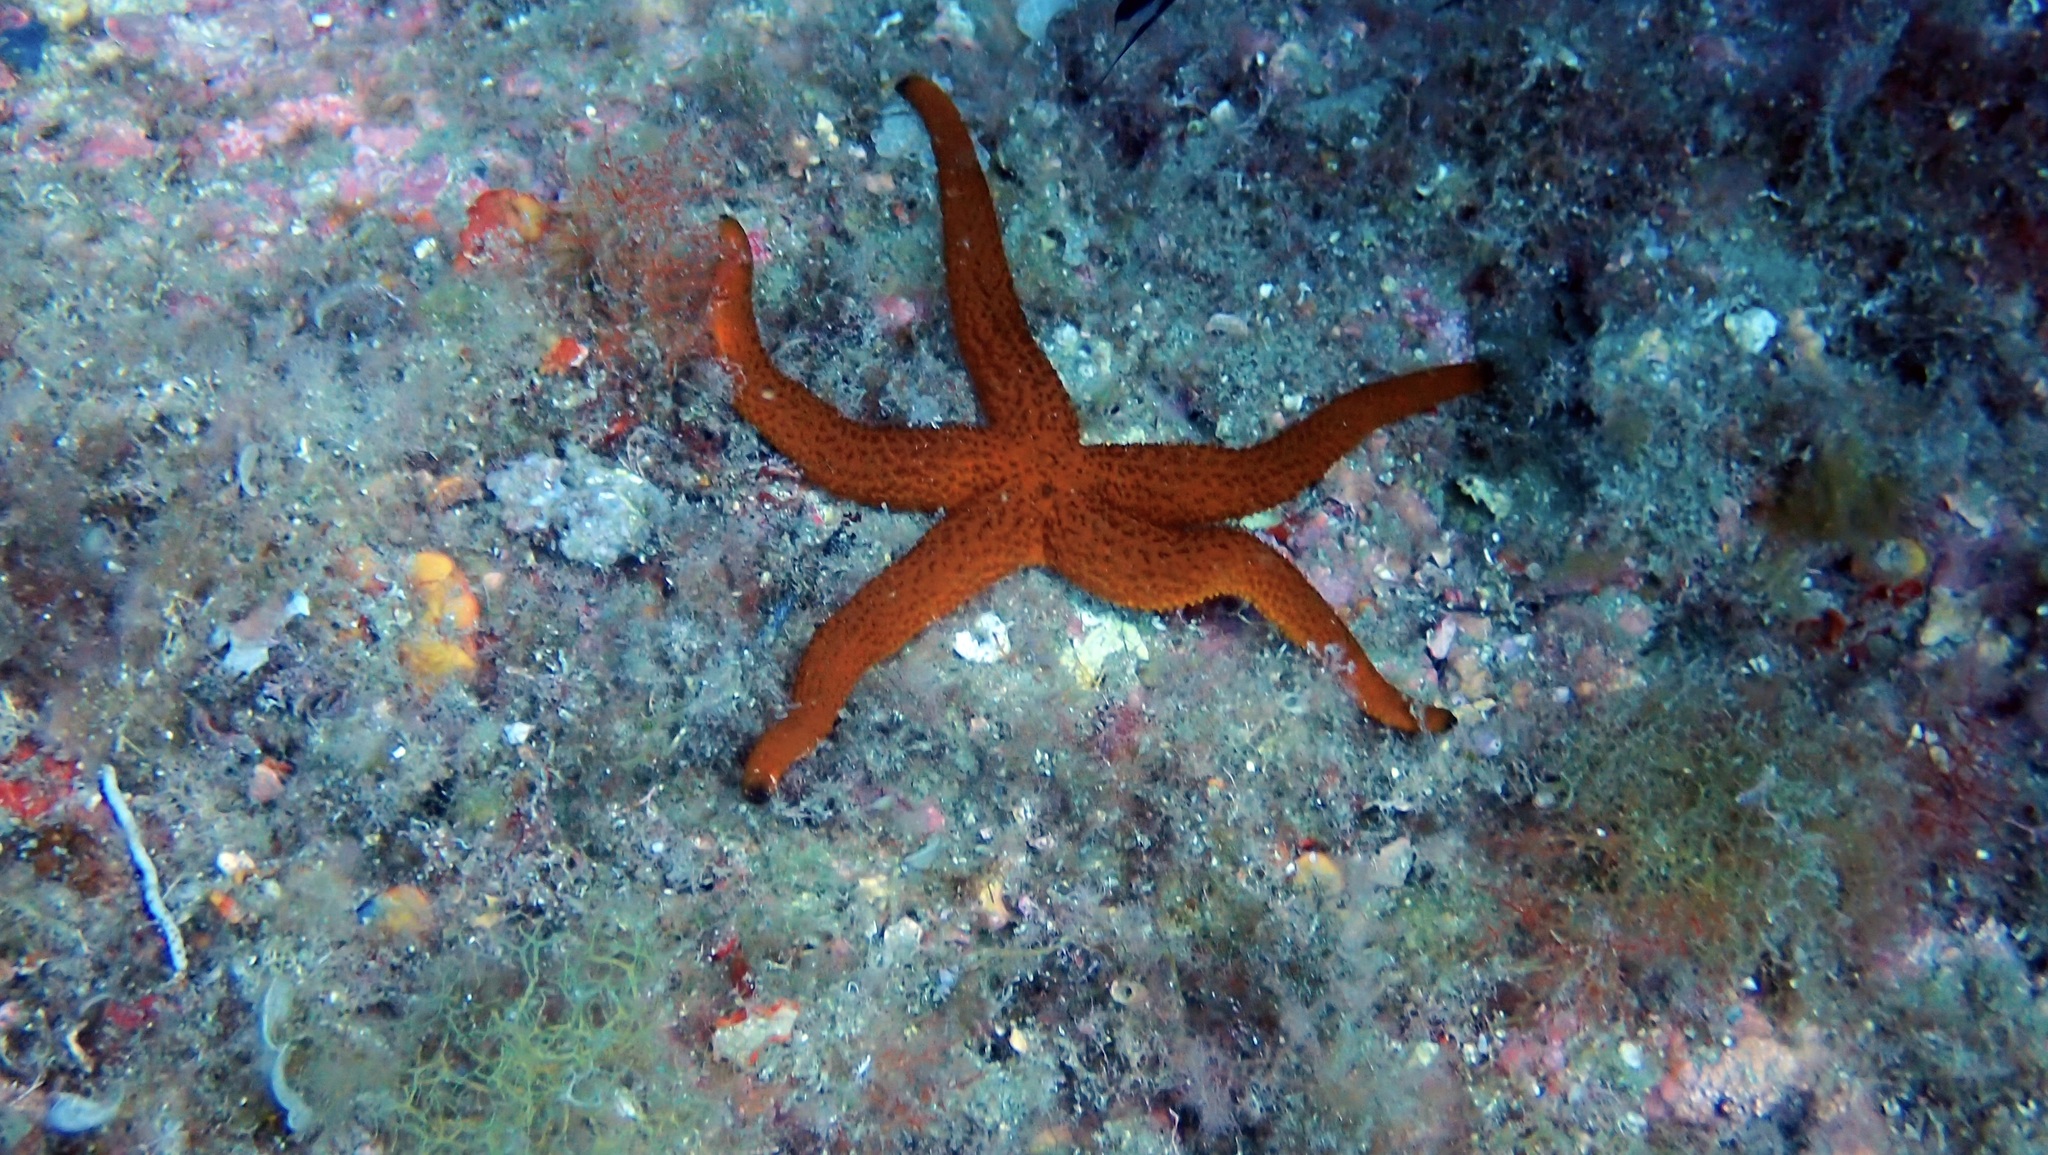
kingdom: Animalia
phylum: Echinodermata
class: Asteroidea
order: Spinulosida
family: Echinasteridae
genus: Echinaster
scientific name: Echinaster sepositus
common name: Red starfish
